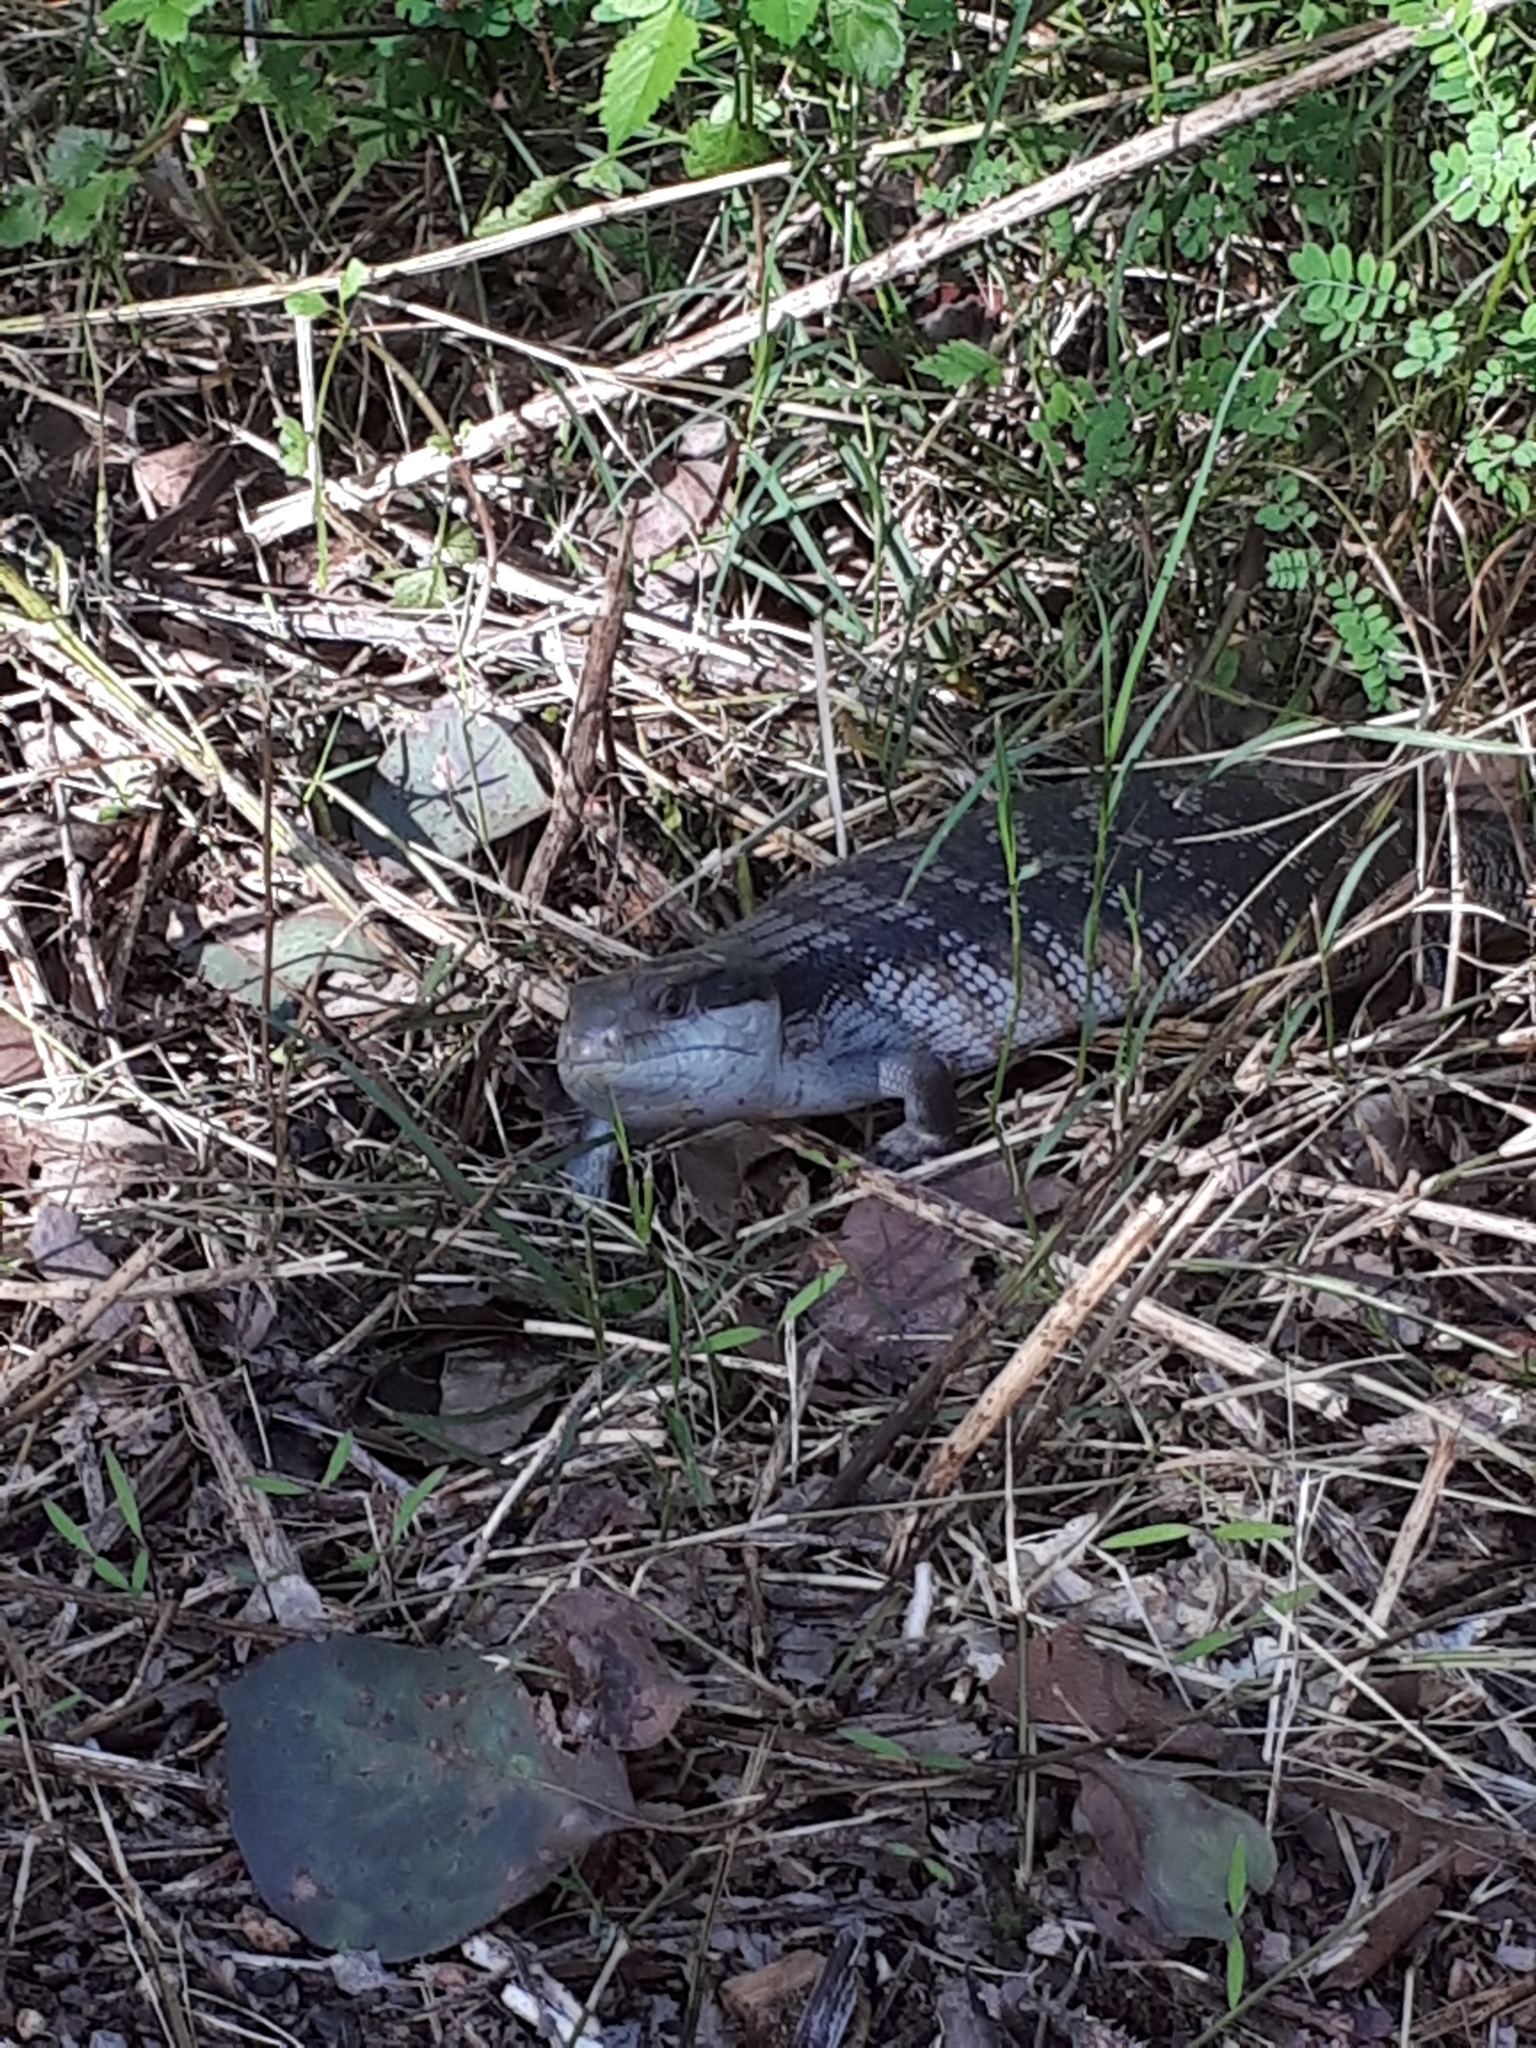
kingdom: Animalia
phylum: Chordata
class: Squamata
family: Scincidae
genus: Tiliqua
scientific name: Tiliqua scincoides
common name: Common bluetongue
